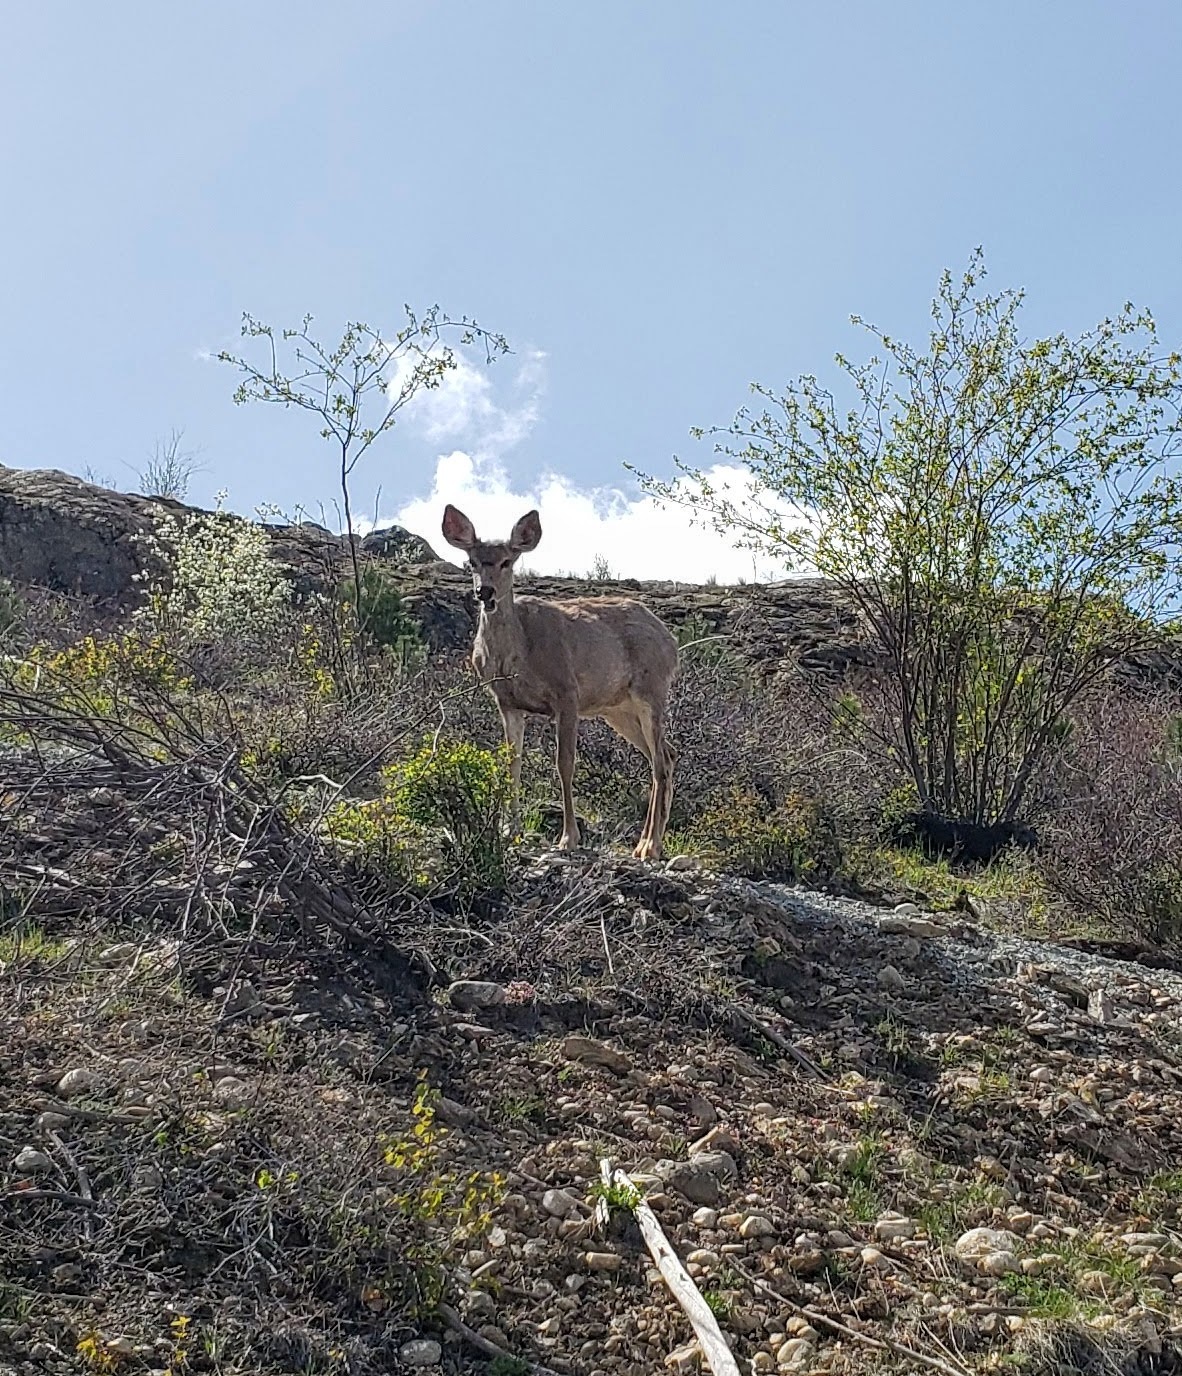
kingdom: Animalia
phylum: Chordata
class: Mammalia
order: Artiodactyla
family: Cervidae
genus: Odocoileus
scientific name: Odocoileus hemionus
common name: Mule deer
